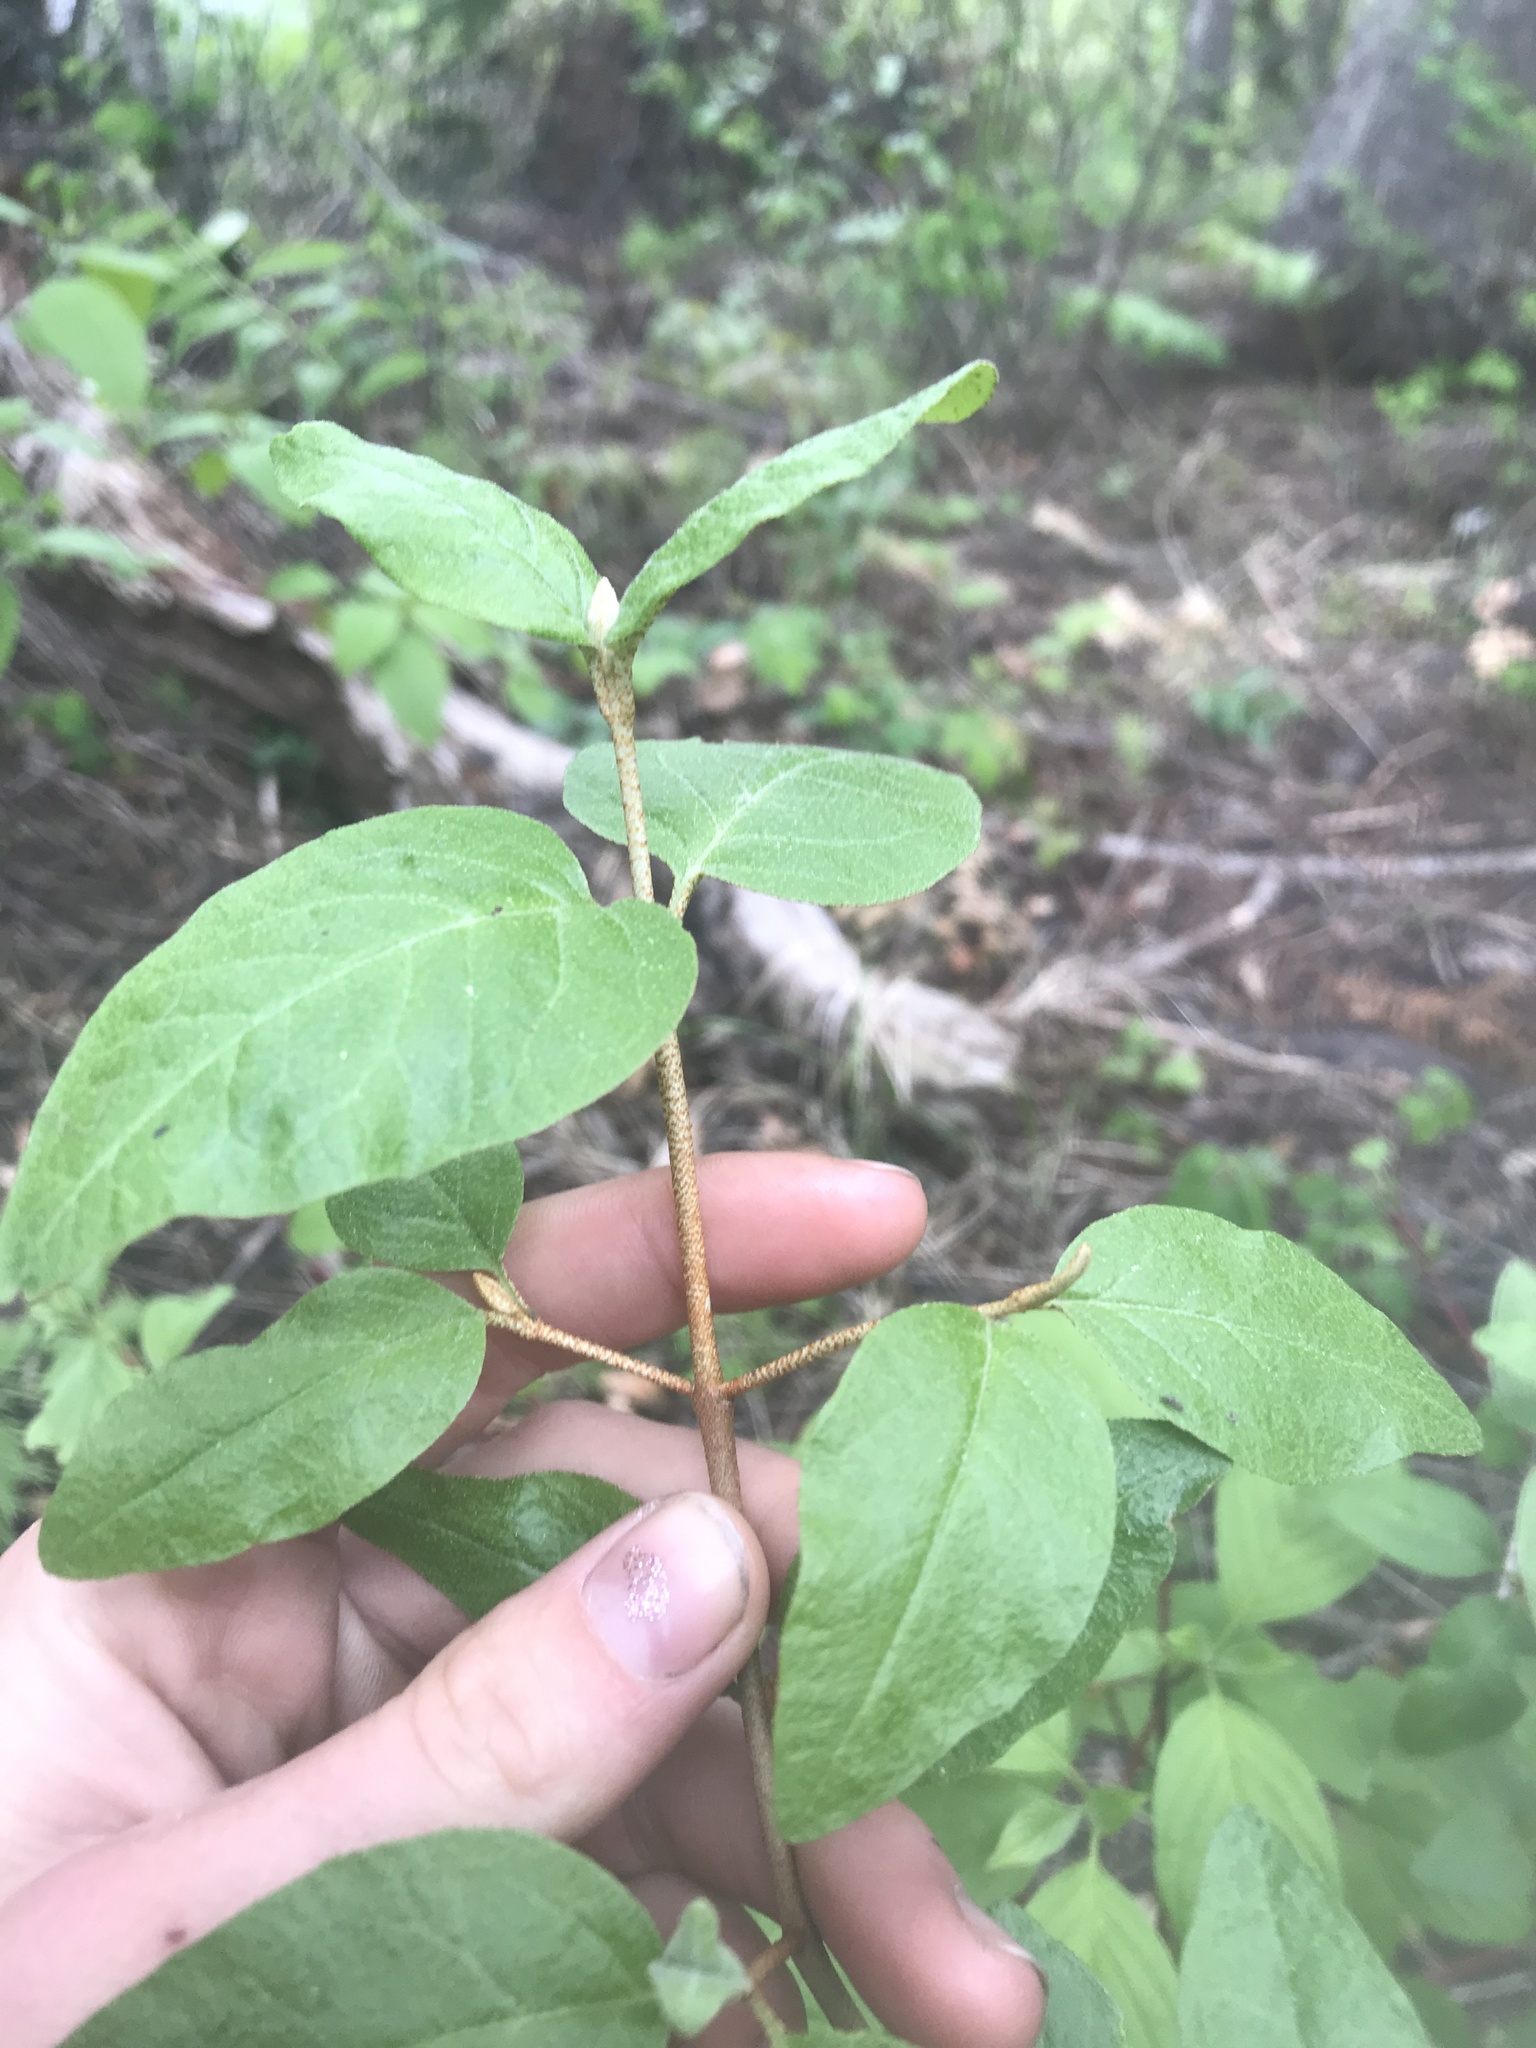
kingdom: Plantae
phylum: Tracheophyta
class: Magnoliopsida
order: Rosales
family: Elaeagnaceae
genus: Shepherdia
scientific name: Shepherdia canadensis
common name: Soapberry
